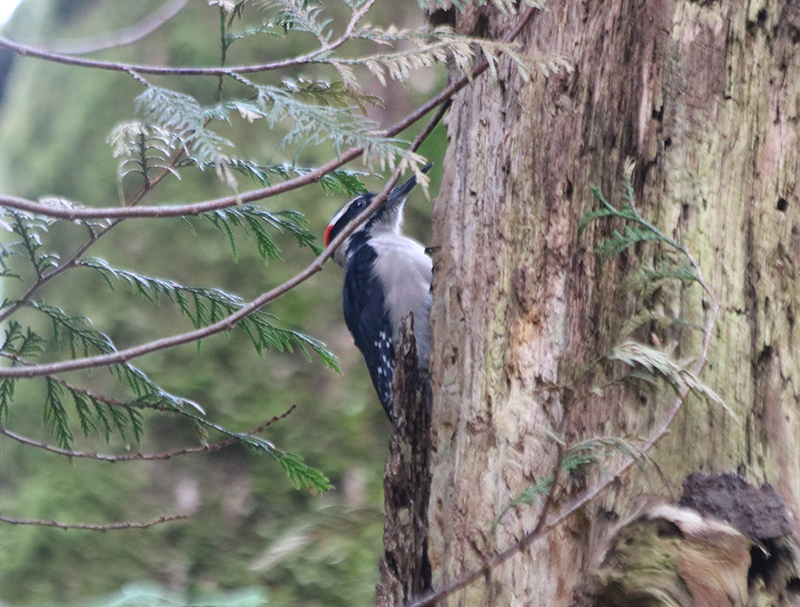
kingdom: Animalia
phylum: Chordata
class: Aves
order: Piciformes
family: Picidae
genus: Leuconotopicus
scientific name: Leuconotopicus villosus
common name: Hairy woodpecker
